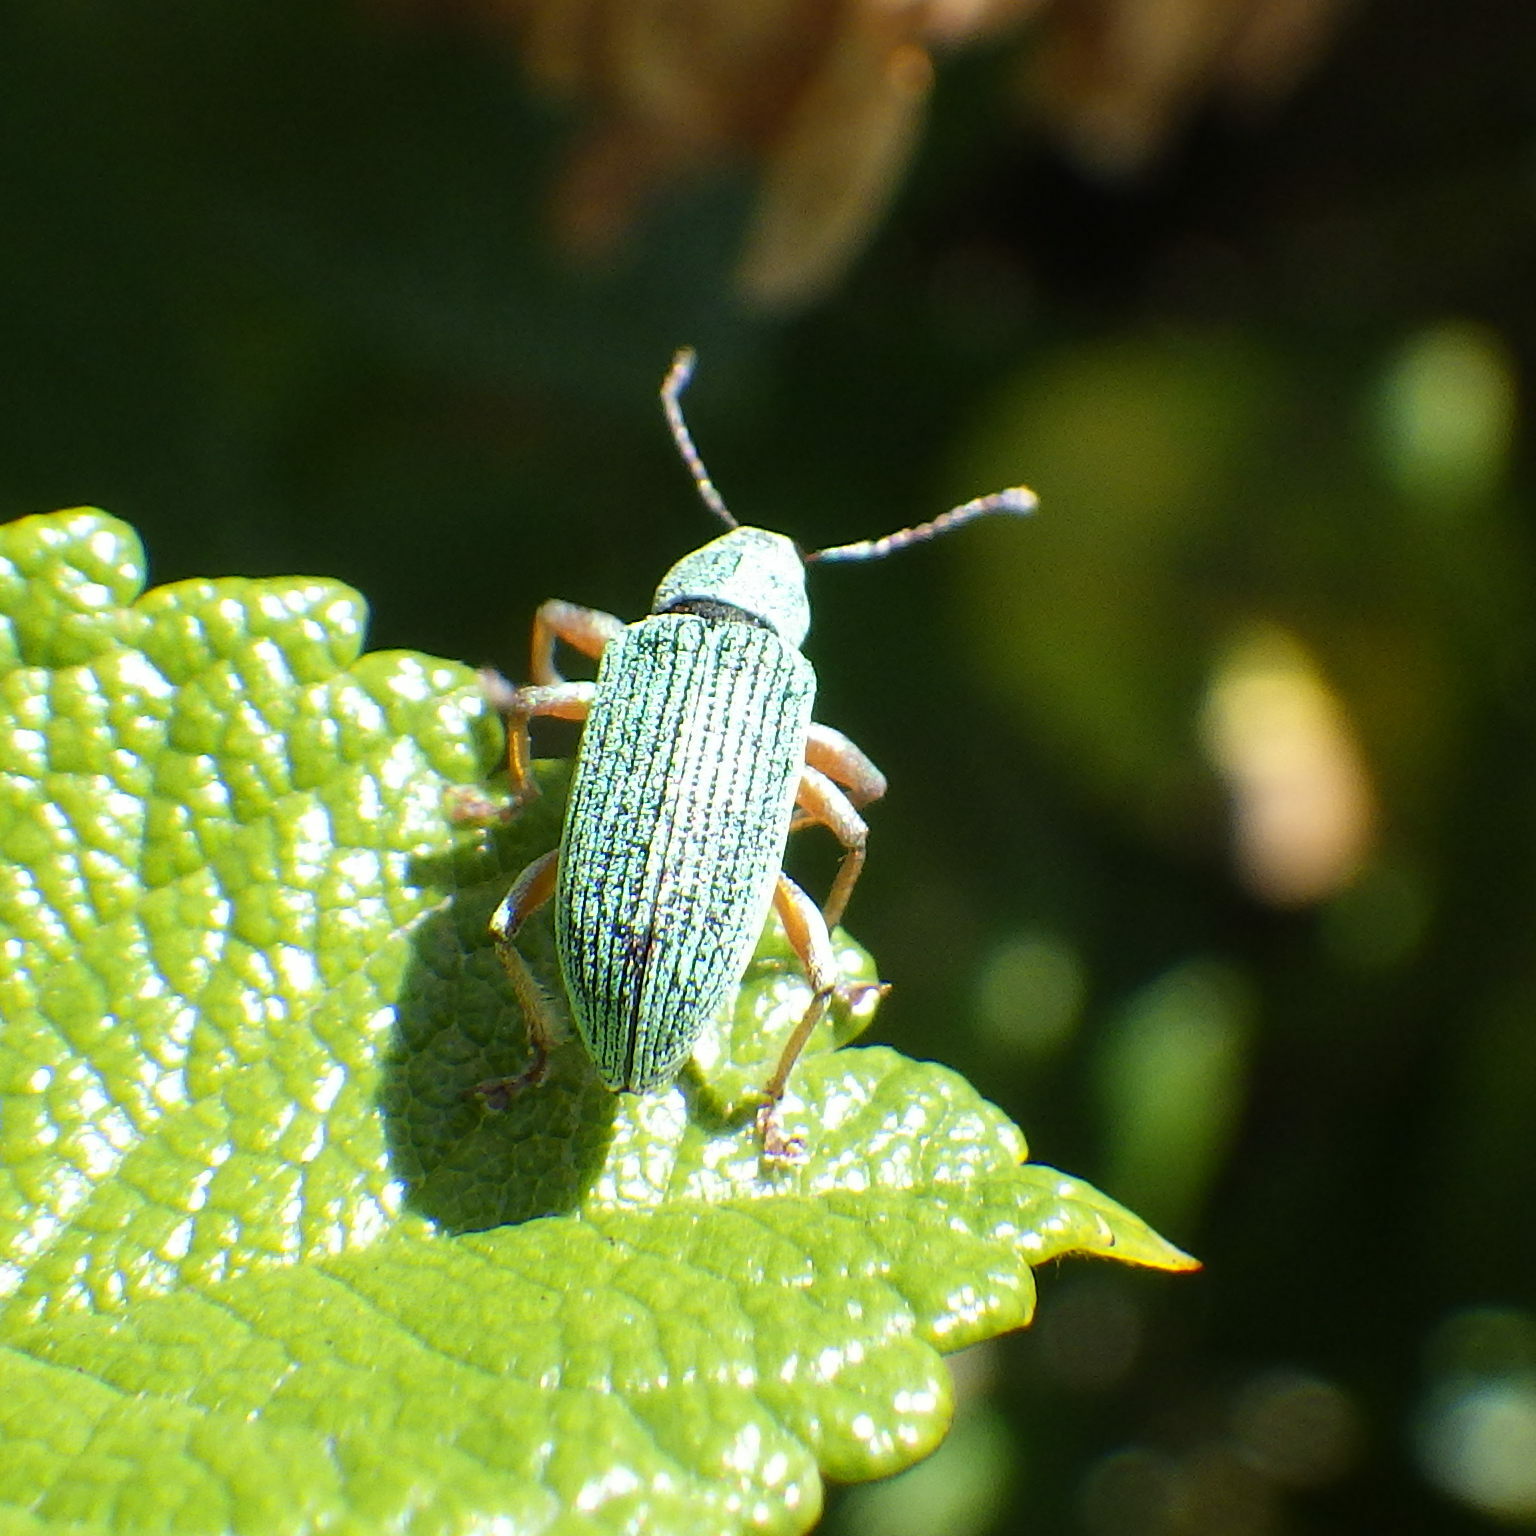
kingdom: Animalia
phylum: Arthropoda
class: Insecta
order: Coleoptera
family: Curculionidae
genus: Polydrusus
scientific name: Polydrusus formosus
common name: Weevil
